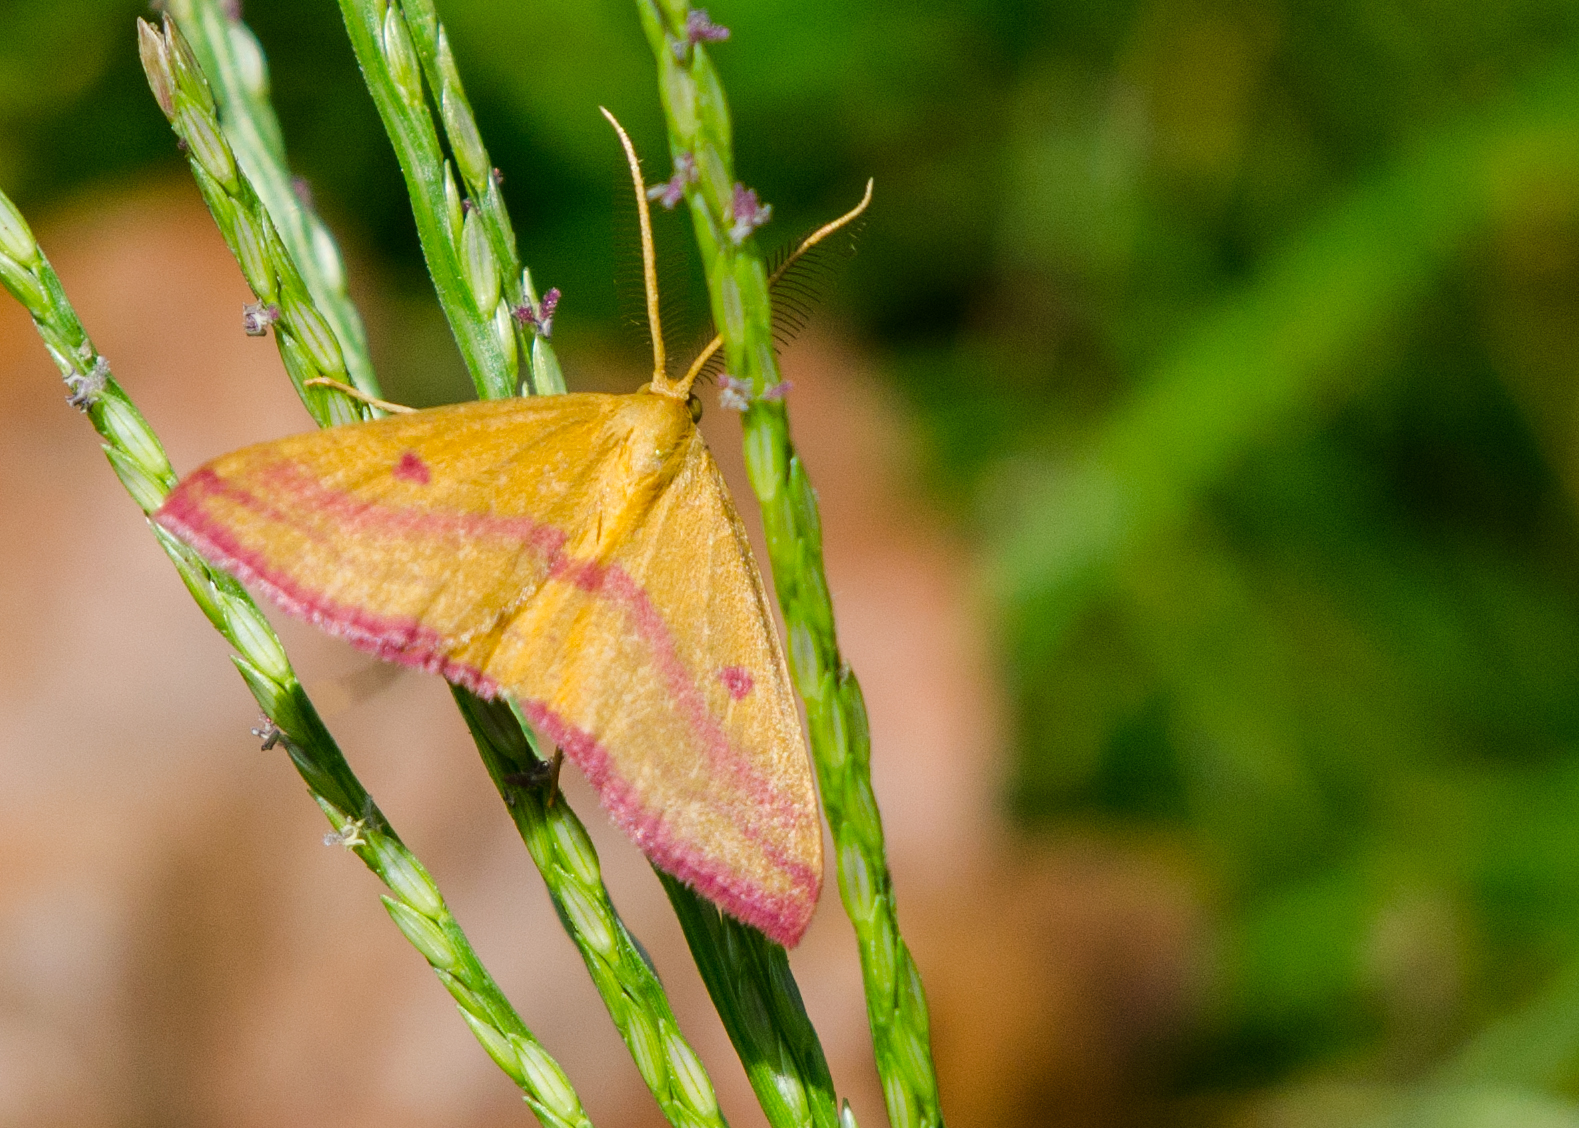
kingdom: Animalia
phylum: Arthropoda
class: Insecta
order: Lepidoptera
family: Geometridae
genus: Haematopis
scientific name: Haematopis grataria
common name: Chickweed geometer
